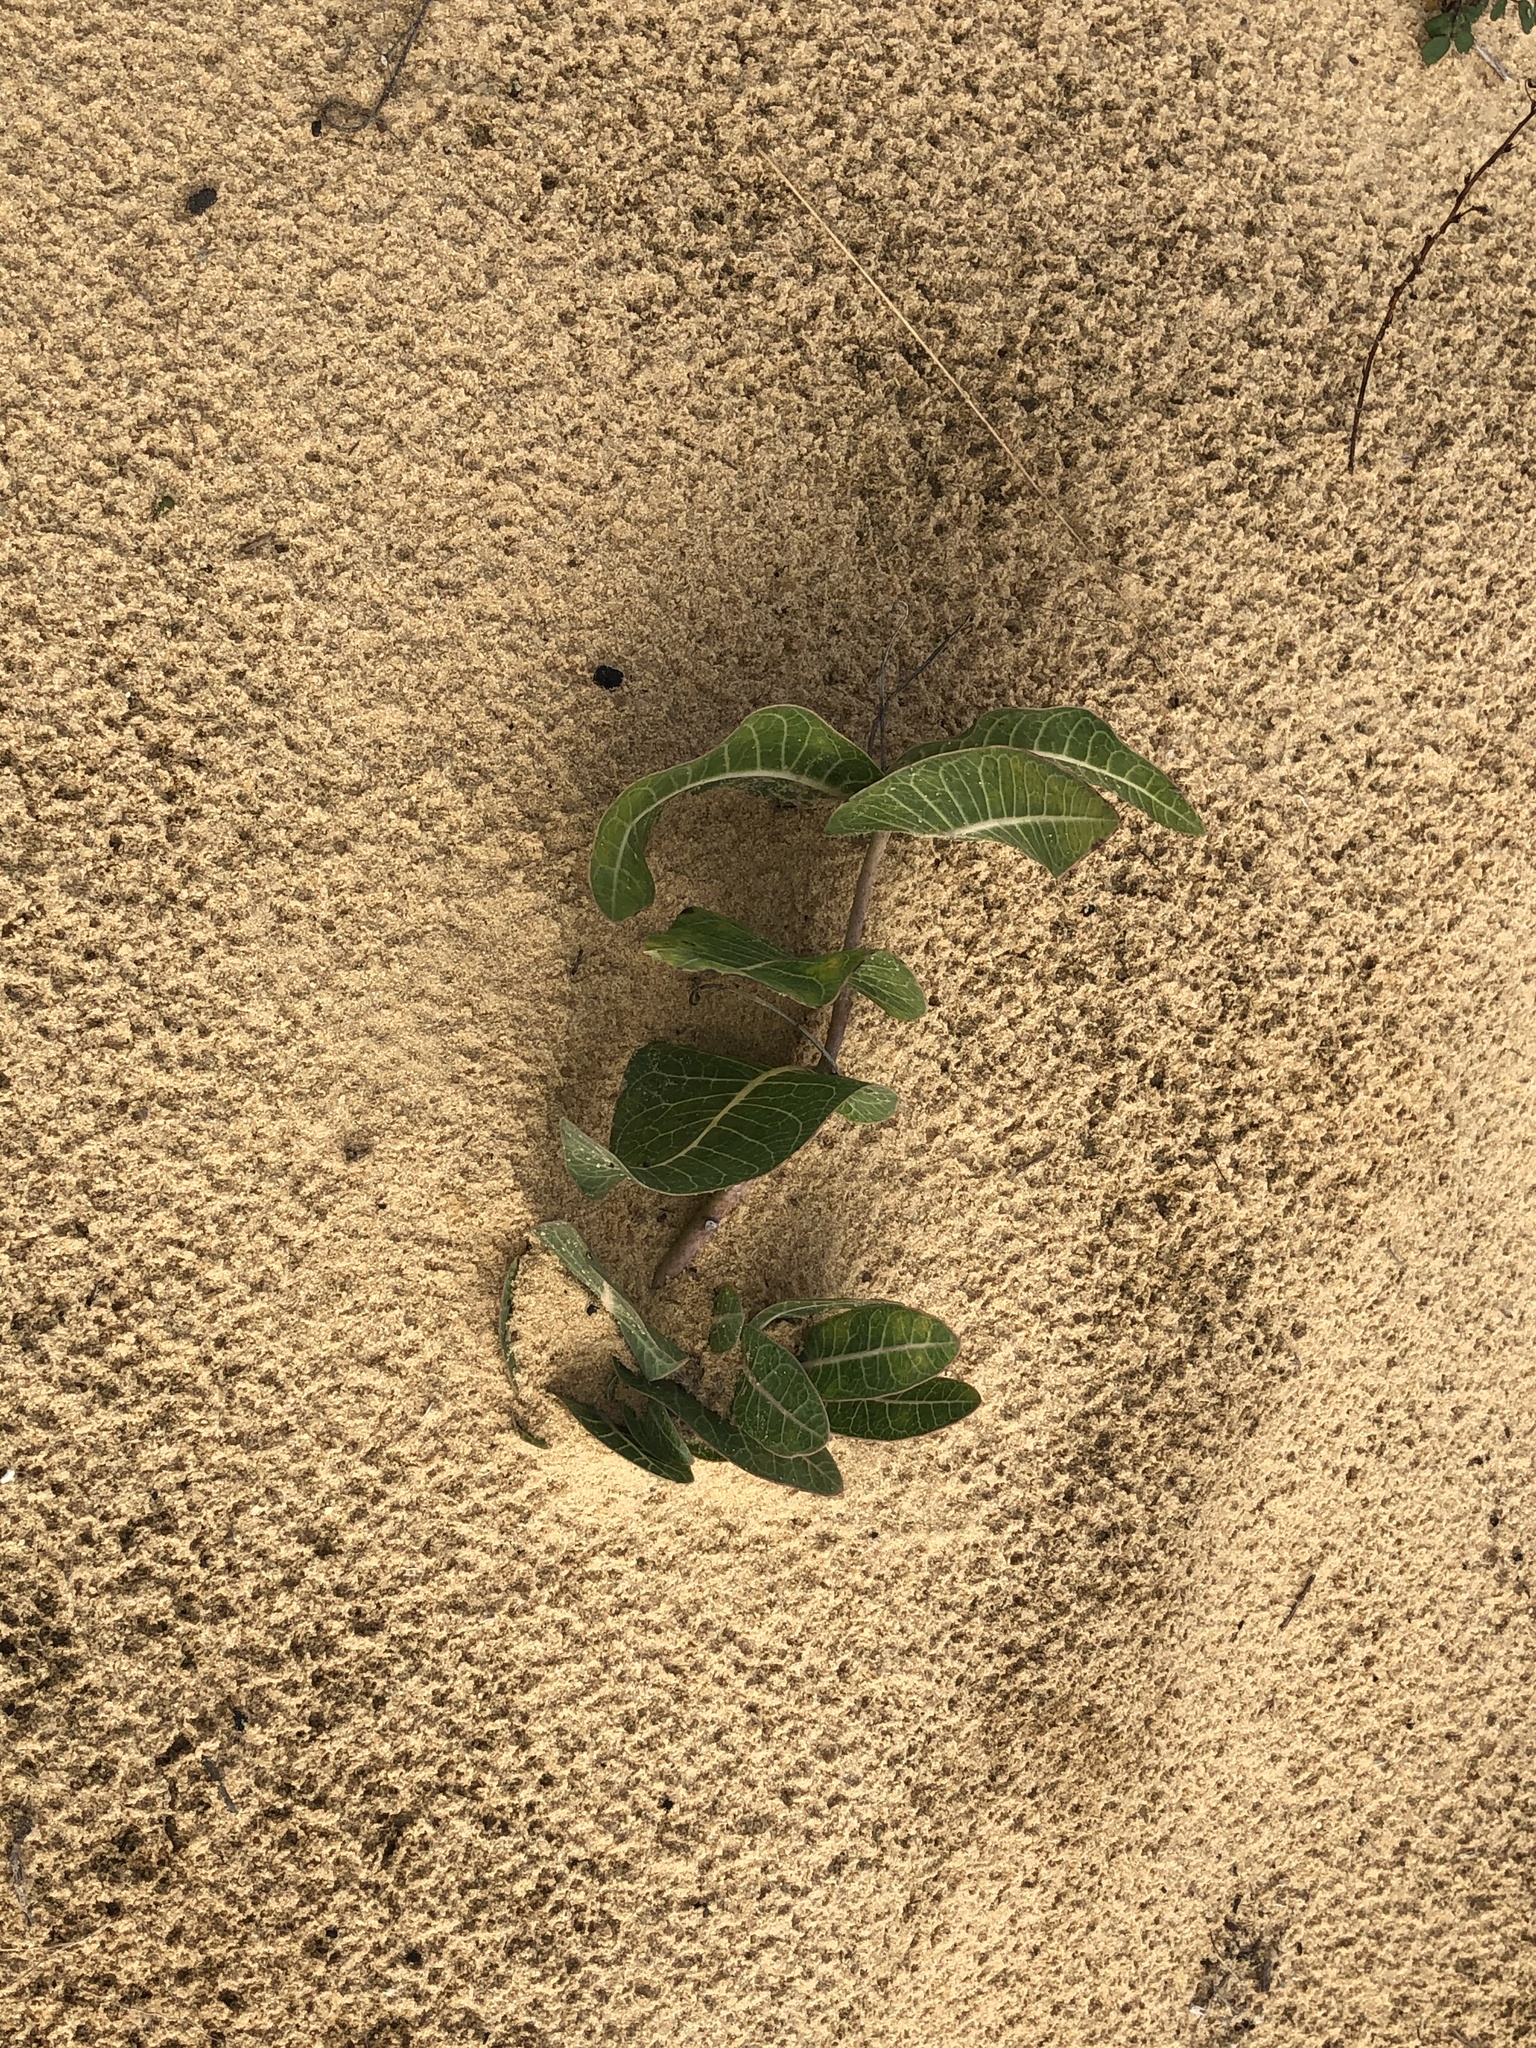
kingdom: Plantae
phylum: Tracheophyta
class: Magnoliopsida
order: Gentianales
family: Apocynaceae
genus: Asclepias
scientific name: Asclepias humistrata
